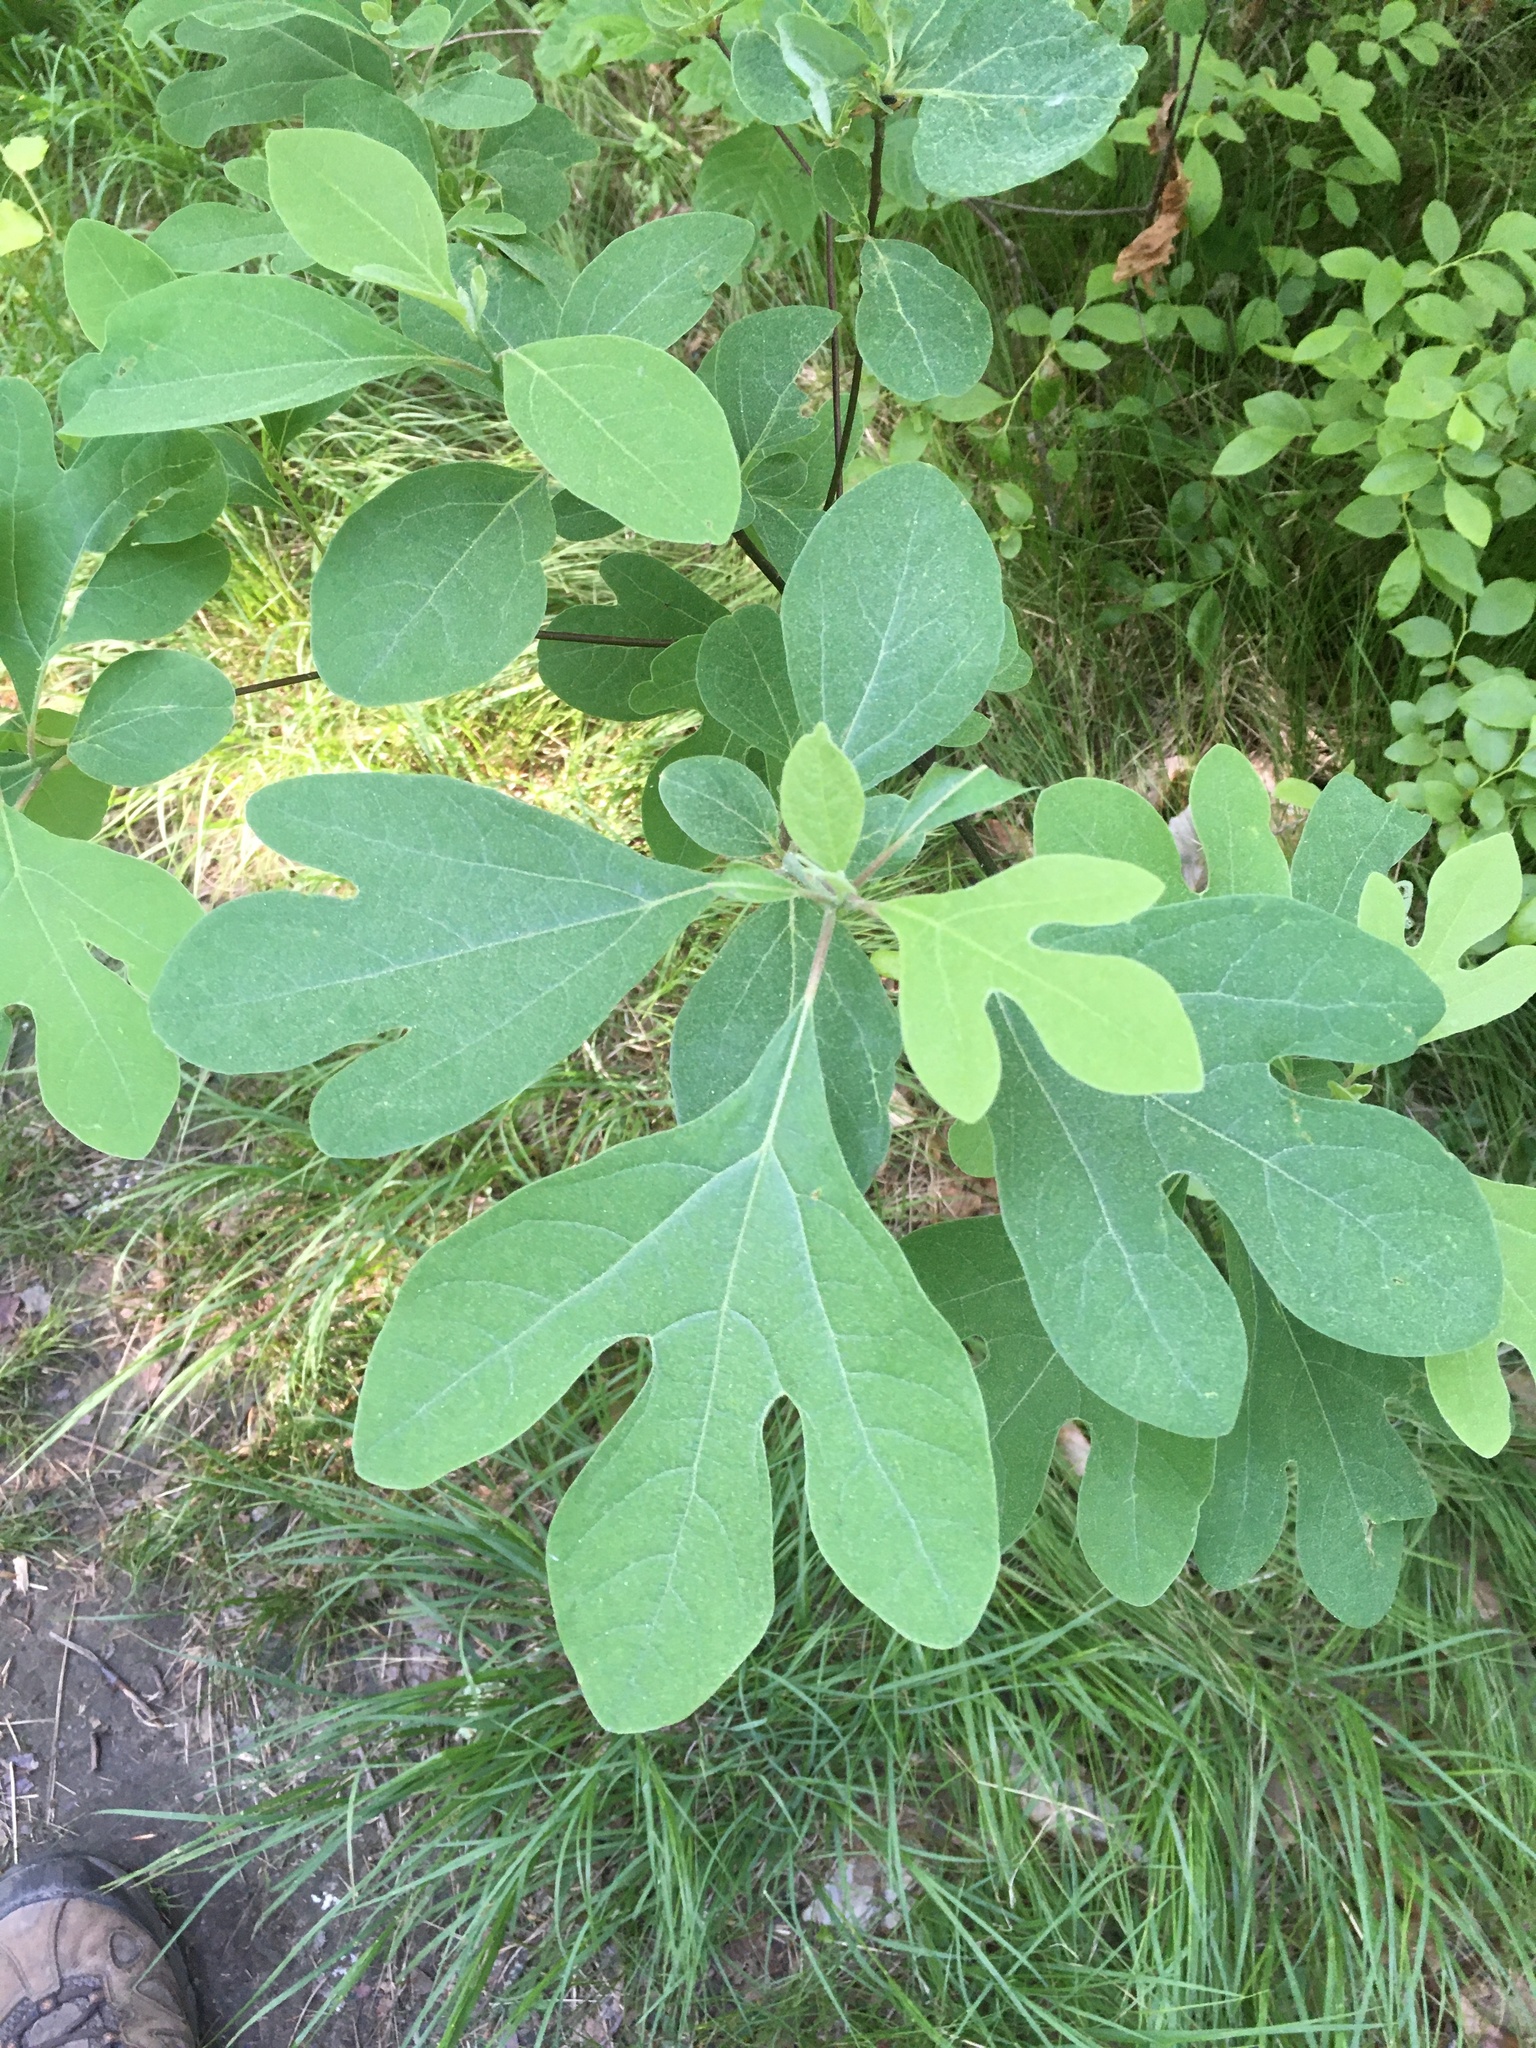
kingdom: Plantae
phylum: Tracheophyta
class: Magnoliopsida
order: Laurales
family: Lauraceae
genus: Sassafras
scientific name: Sassafras albidum
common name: Sassafras
